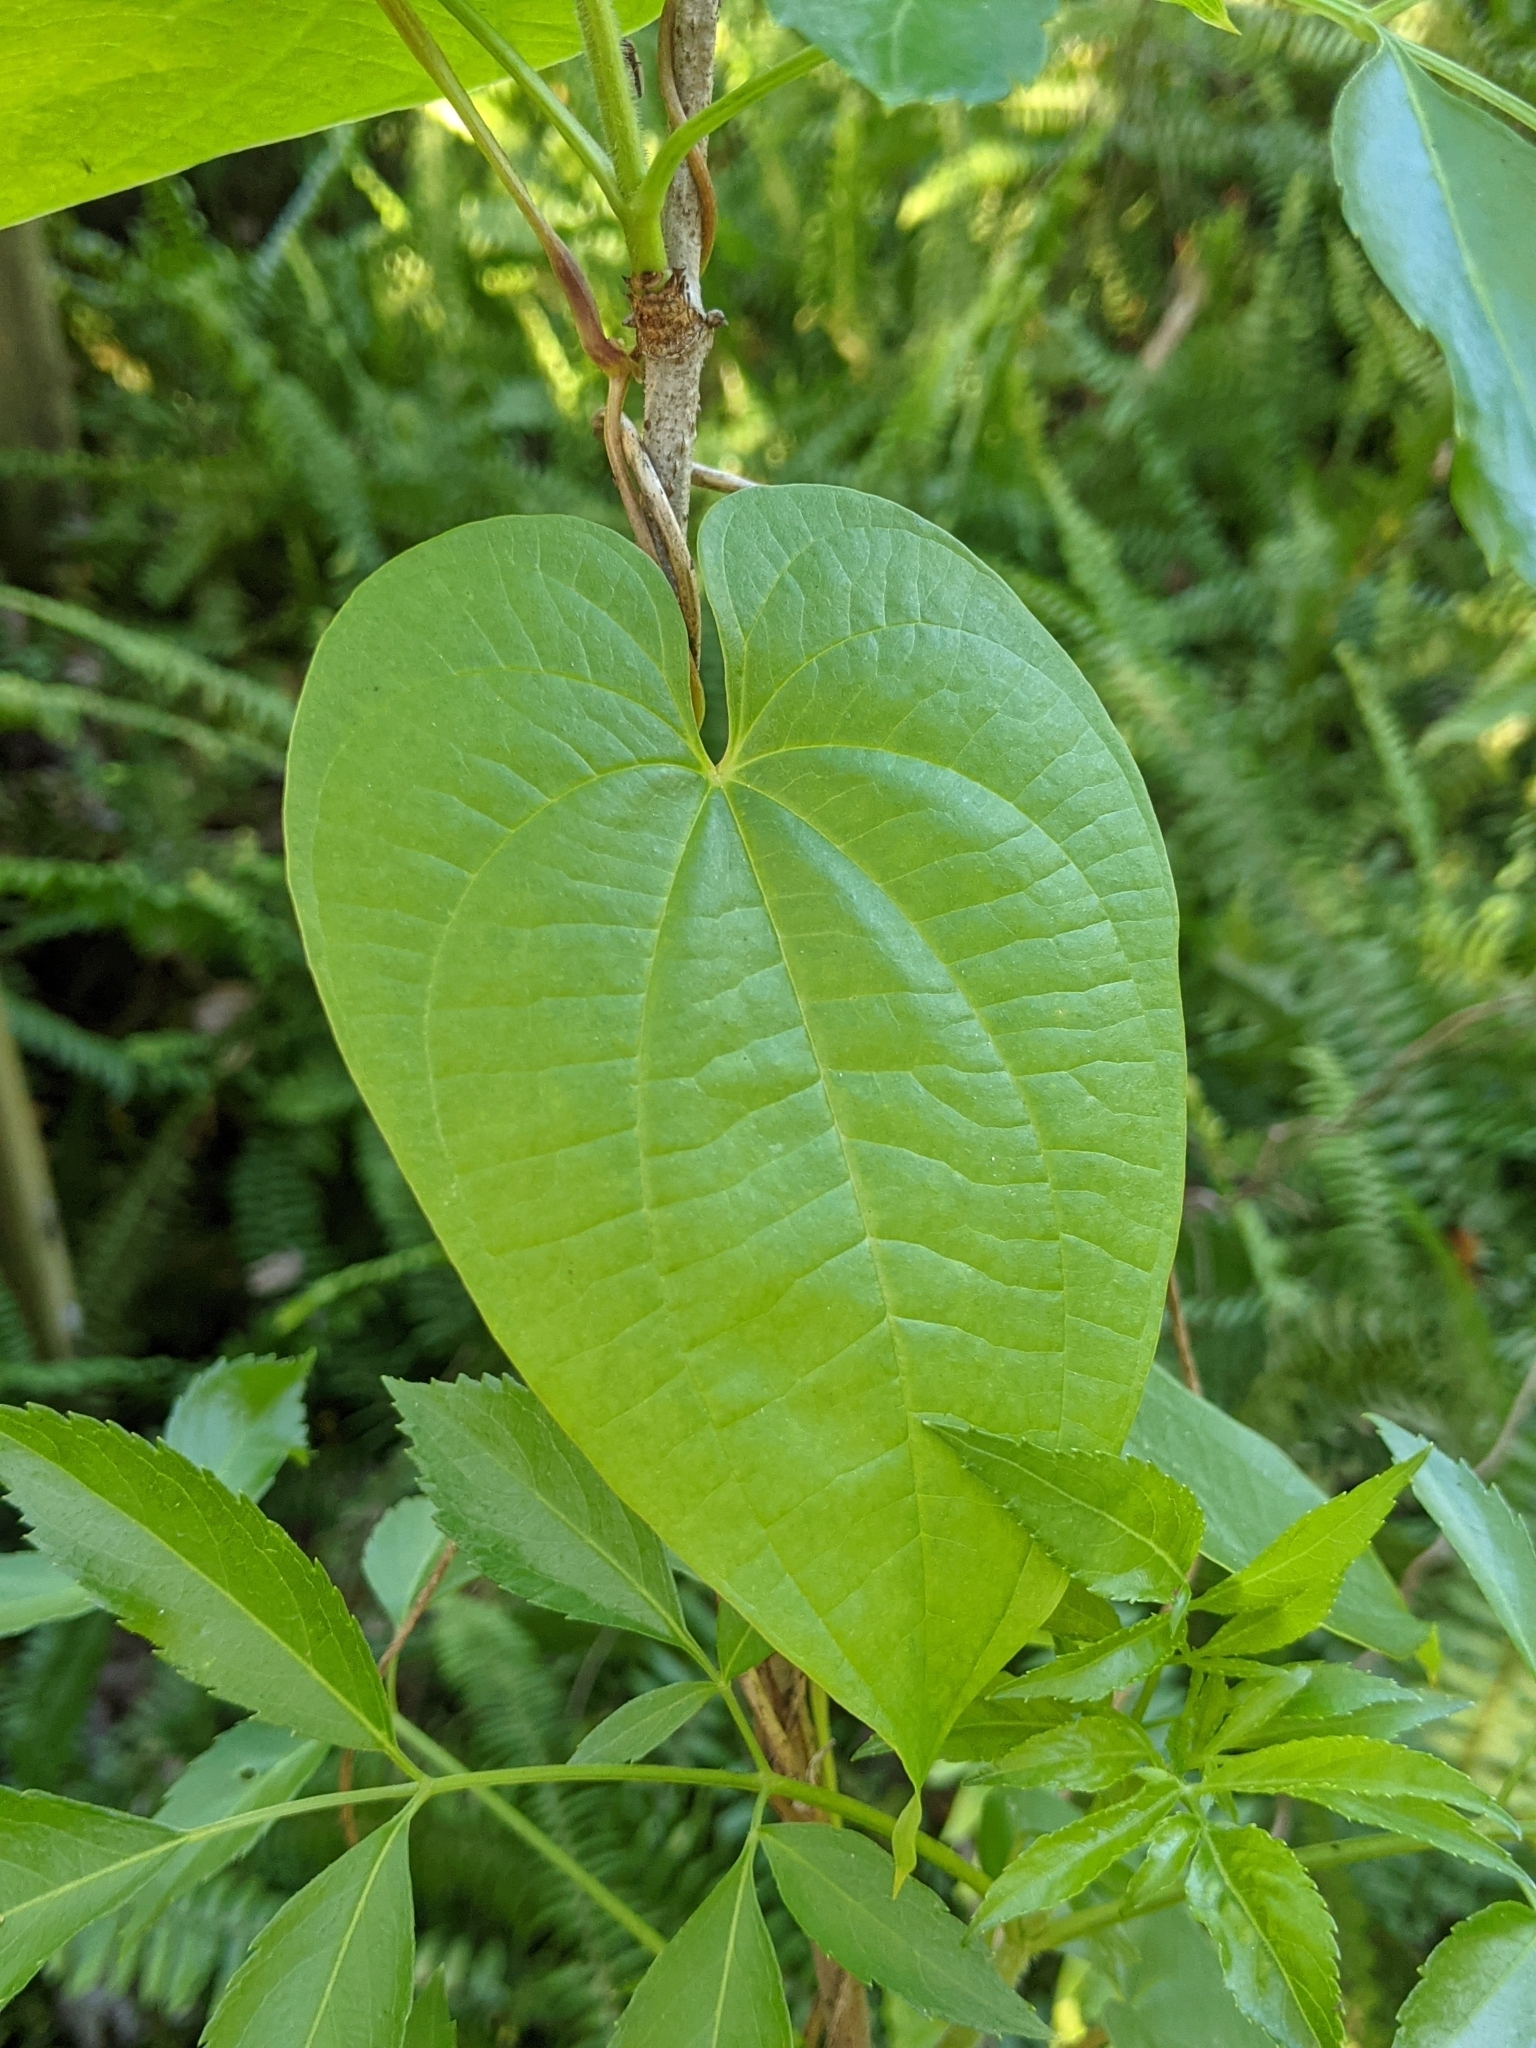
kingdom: Plantae
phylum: Tracheophyta
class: Liliopsida
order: Dioscoreales
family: Dioscoreaceae
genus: Dioscorea
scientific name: Dioscorea bulbifera
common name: Air yam
